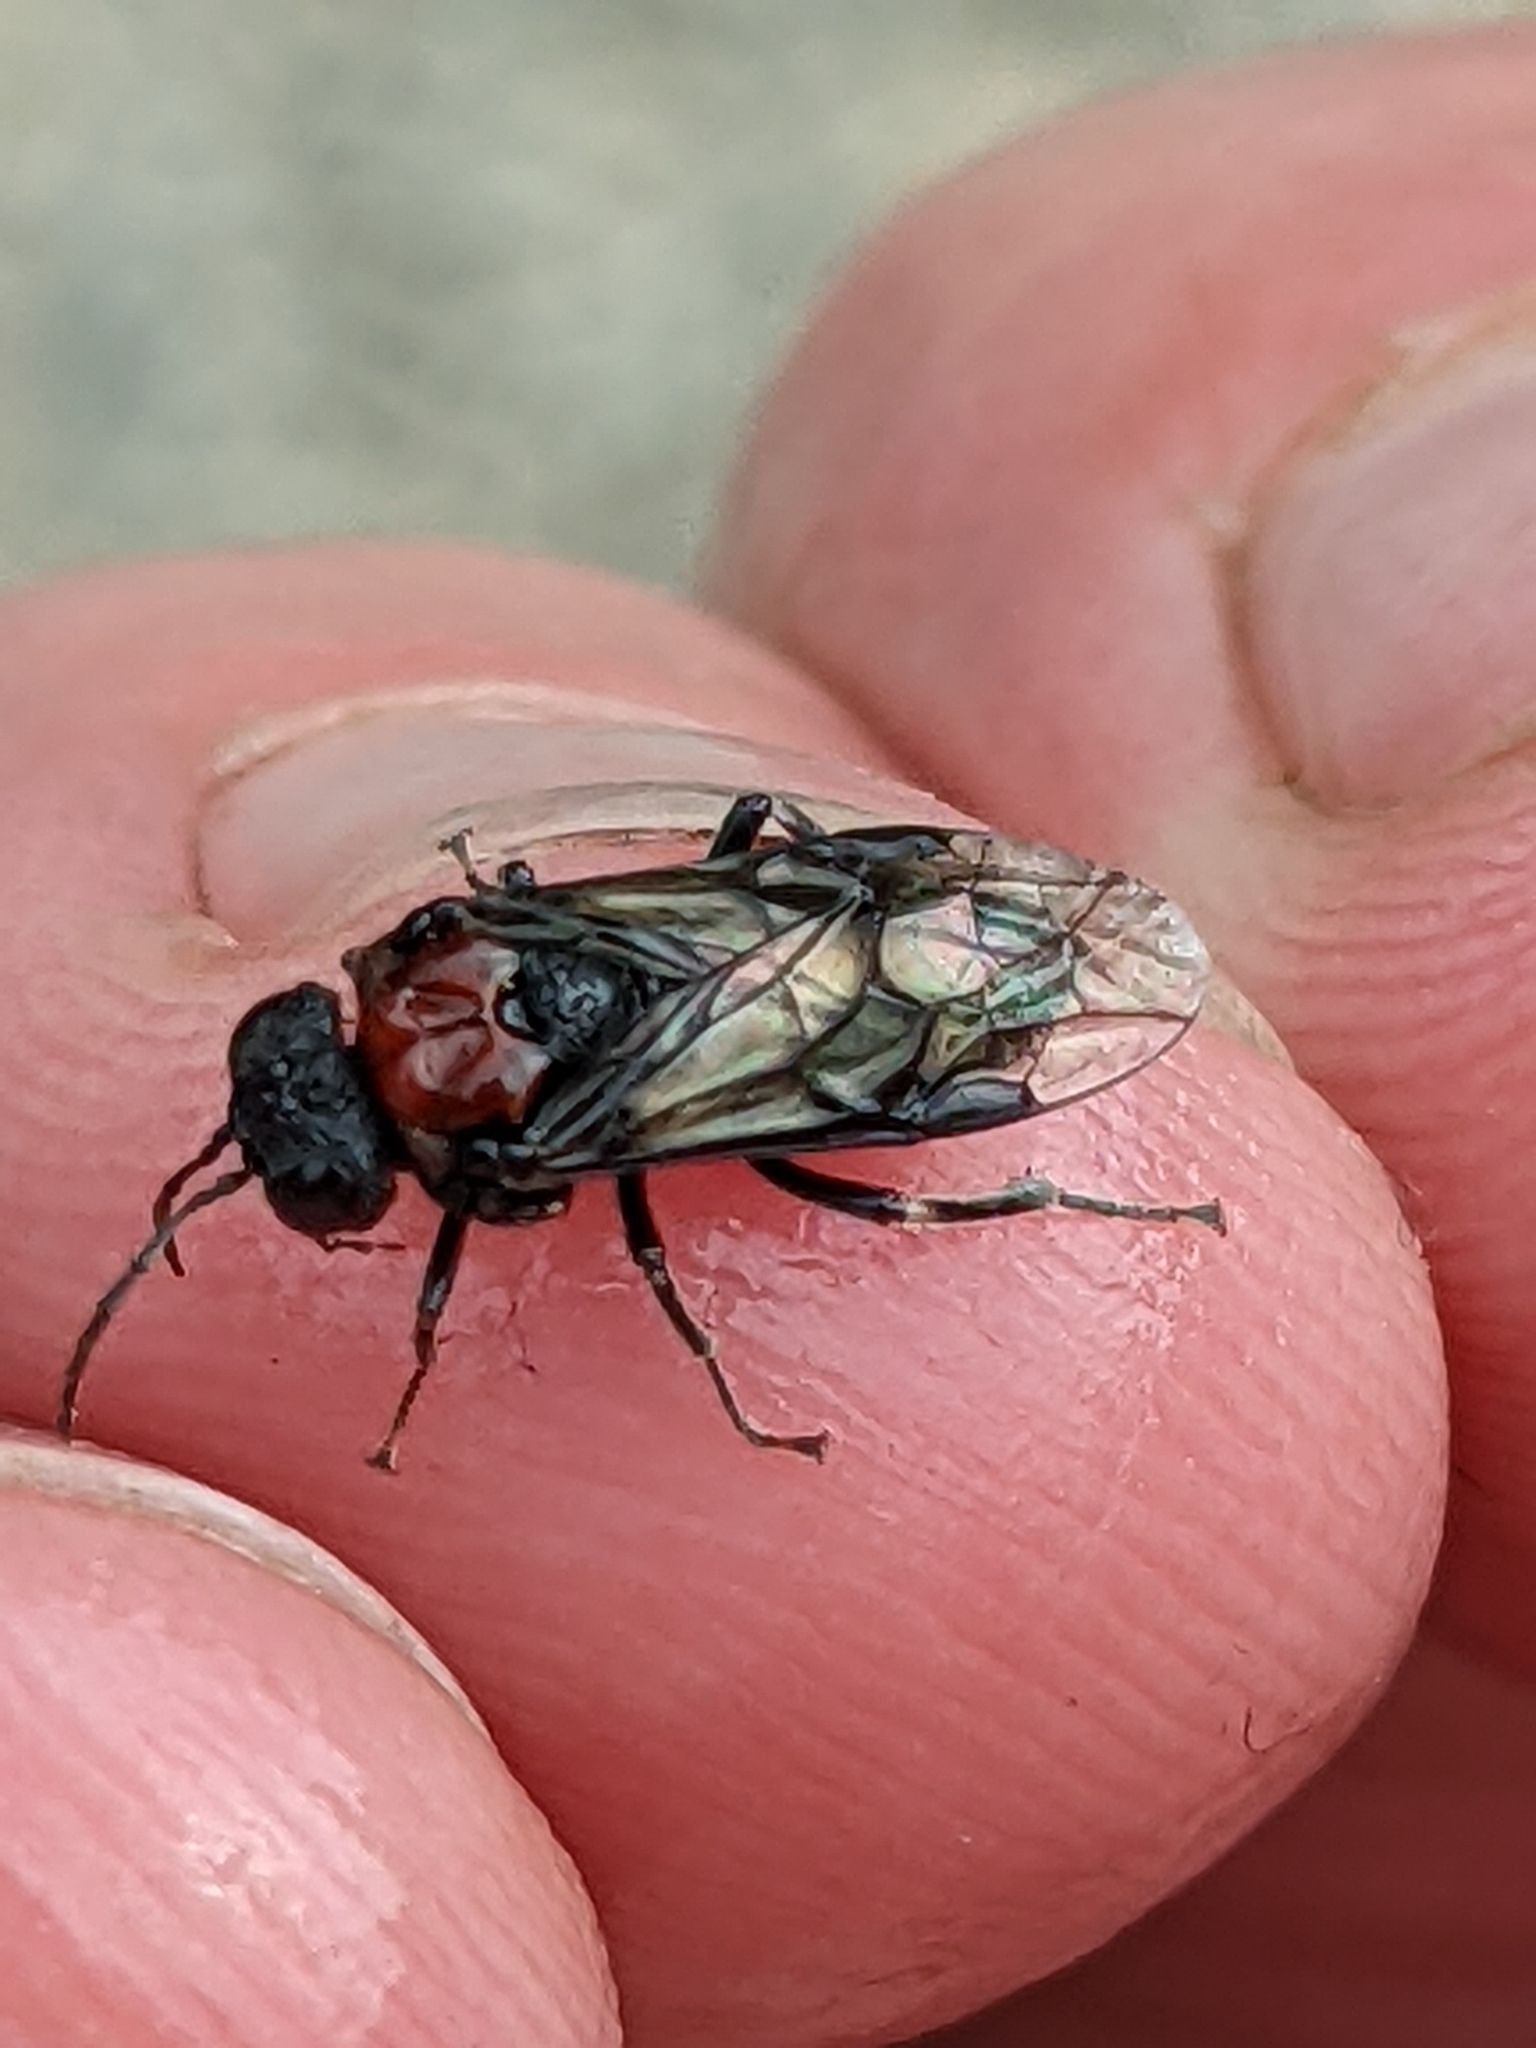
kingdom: Animalia
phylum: Arthropoda
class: Insecta
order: Hymenoptera
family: Tenthredinidae
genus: Eriocampa
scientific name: Eriocampa ovata
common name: Alder wooly sawfly
